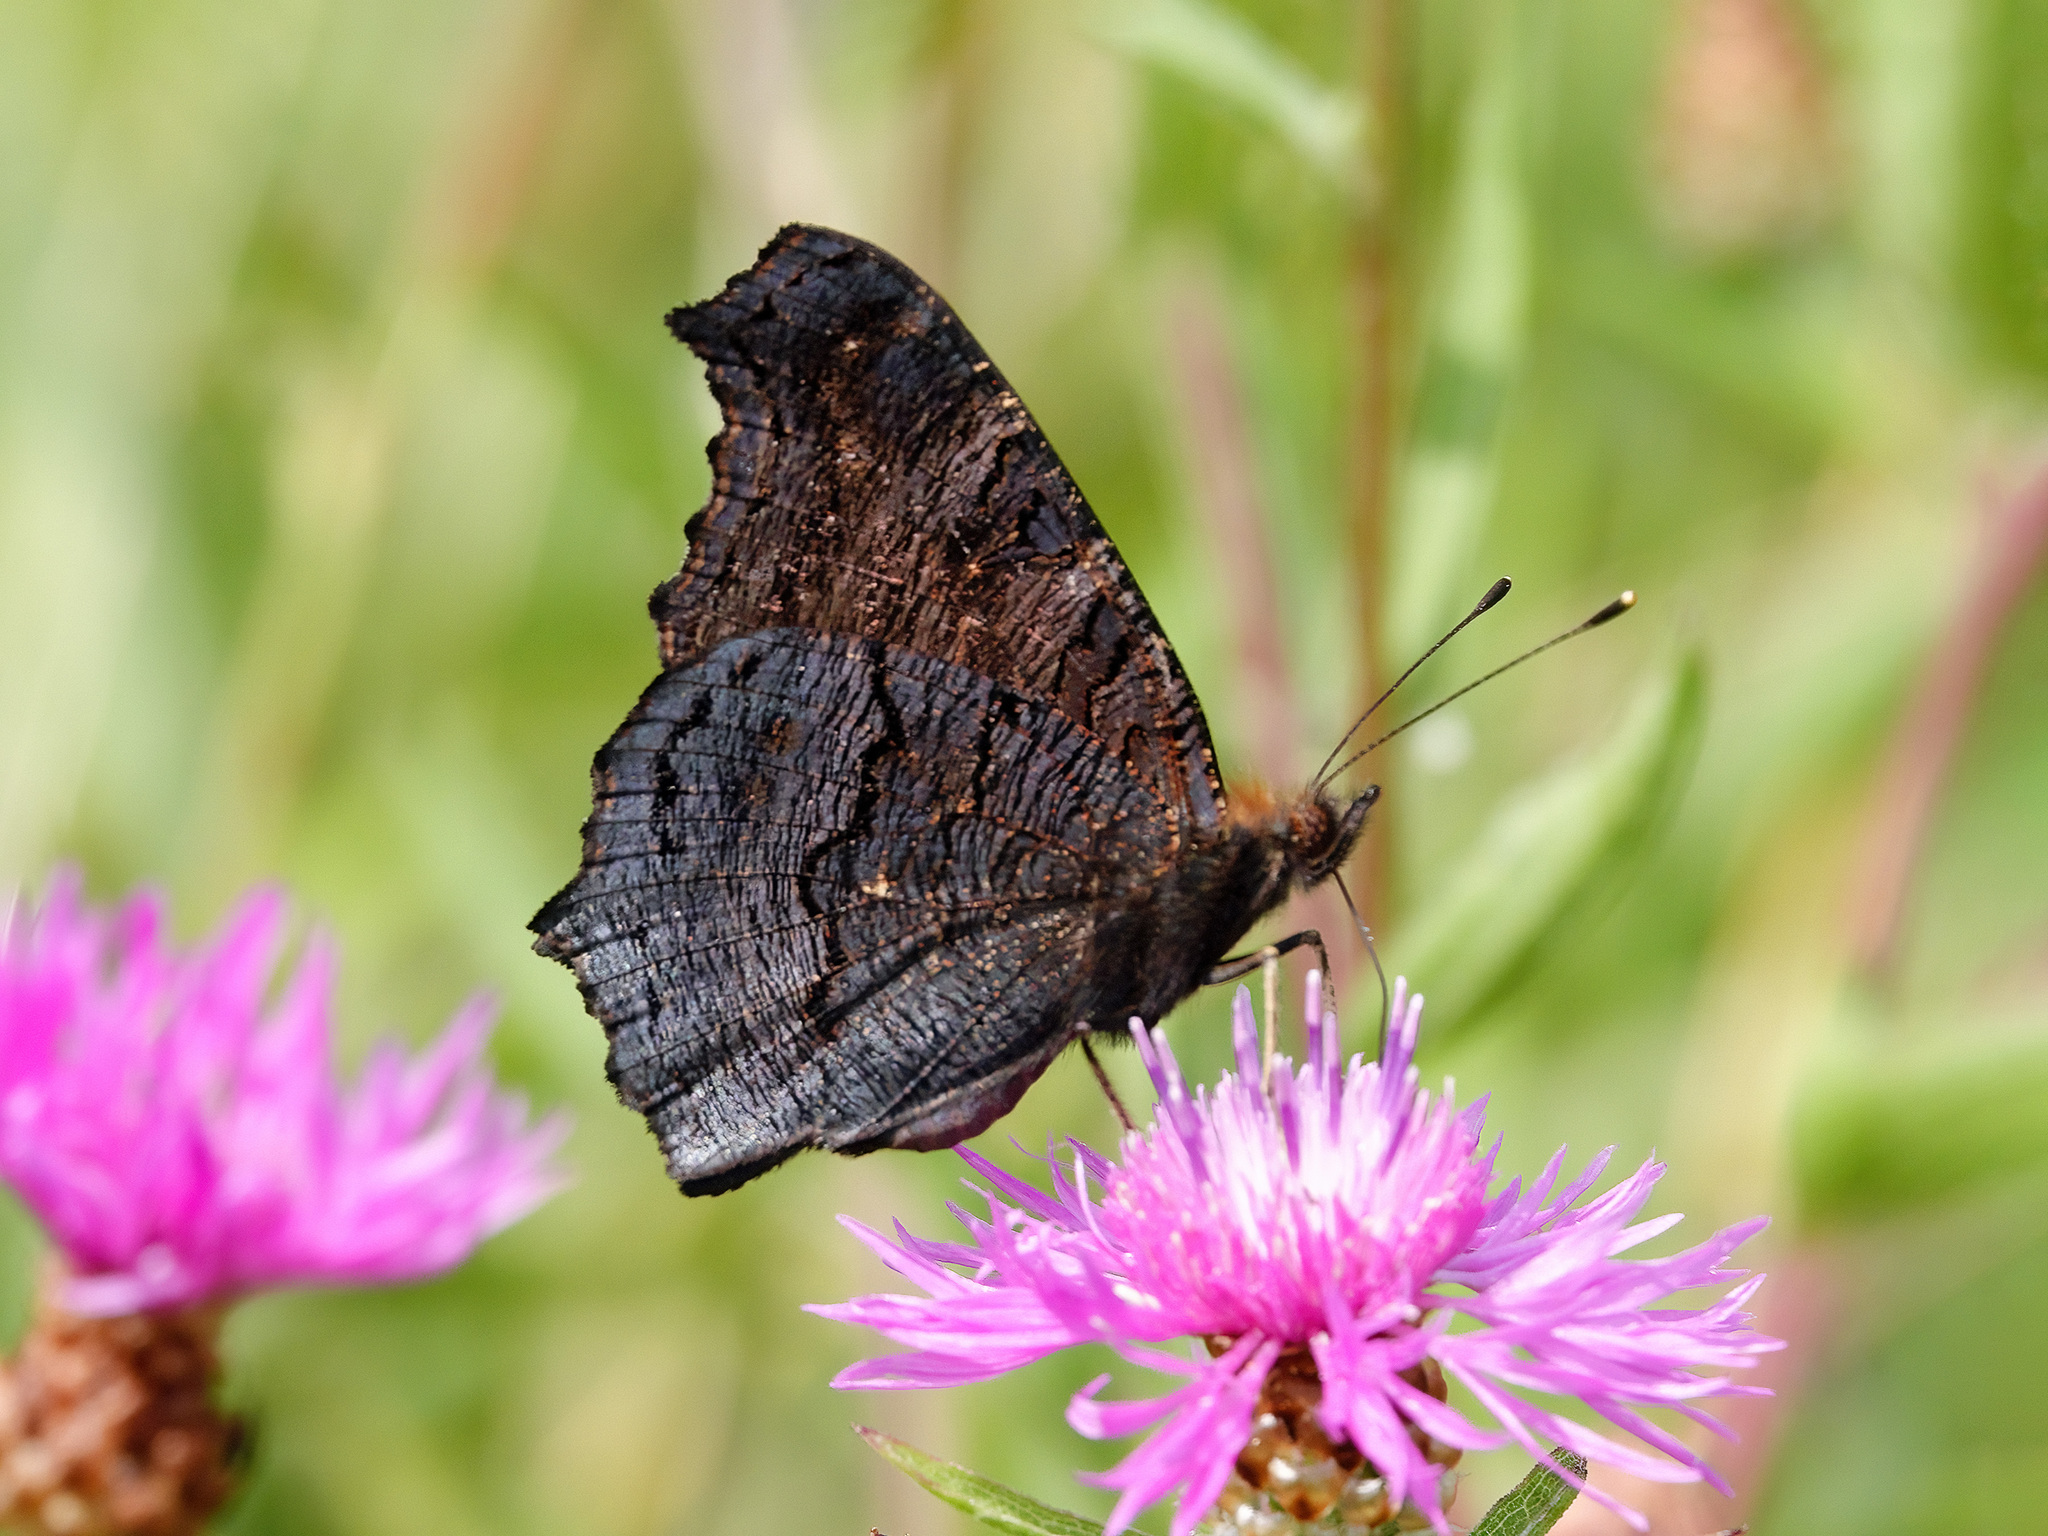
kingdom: Animalia
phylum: Arthropoda
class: Insecta
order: Lepidoptera
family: Nymphalidae
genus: Aglais
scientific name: Aglais io
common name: Peacock
